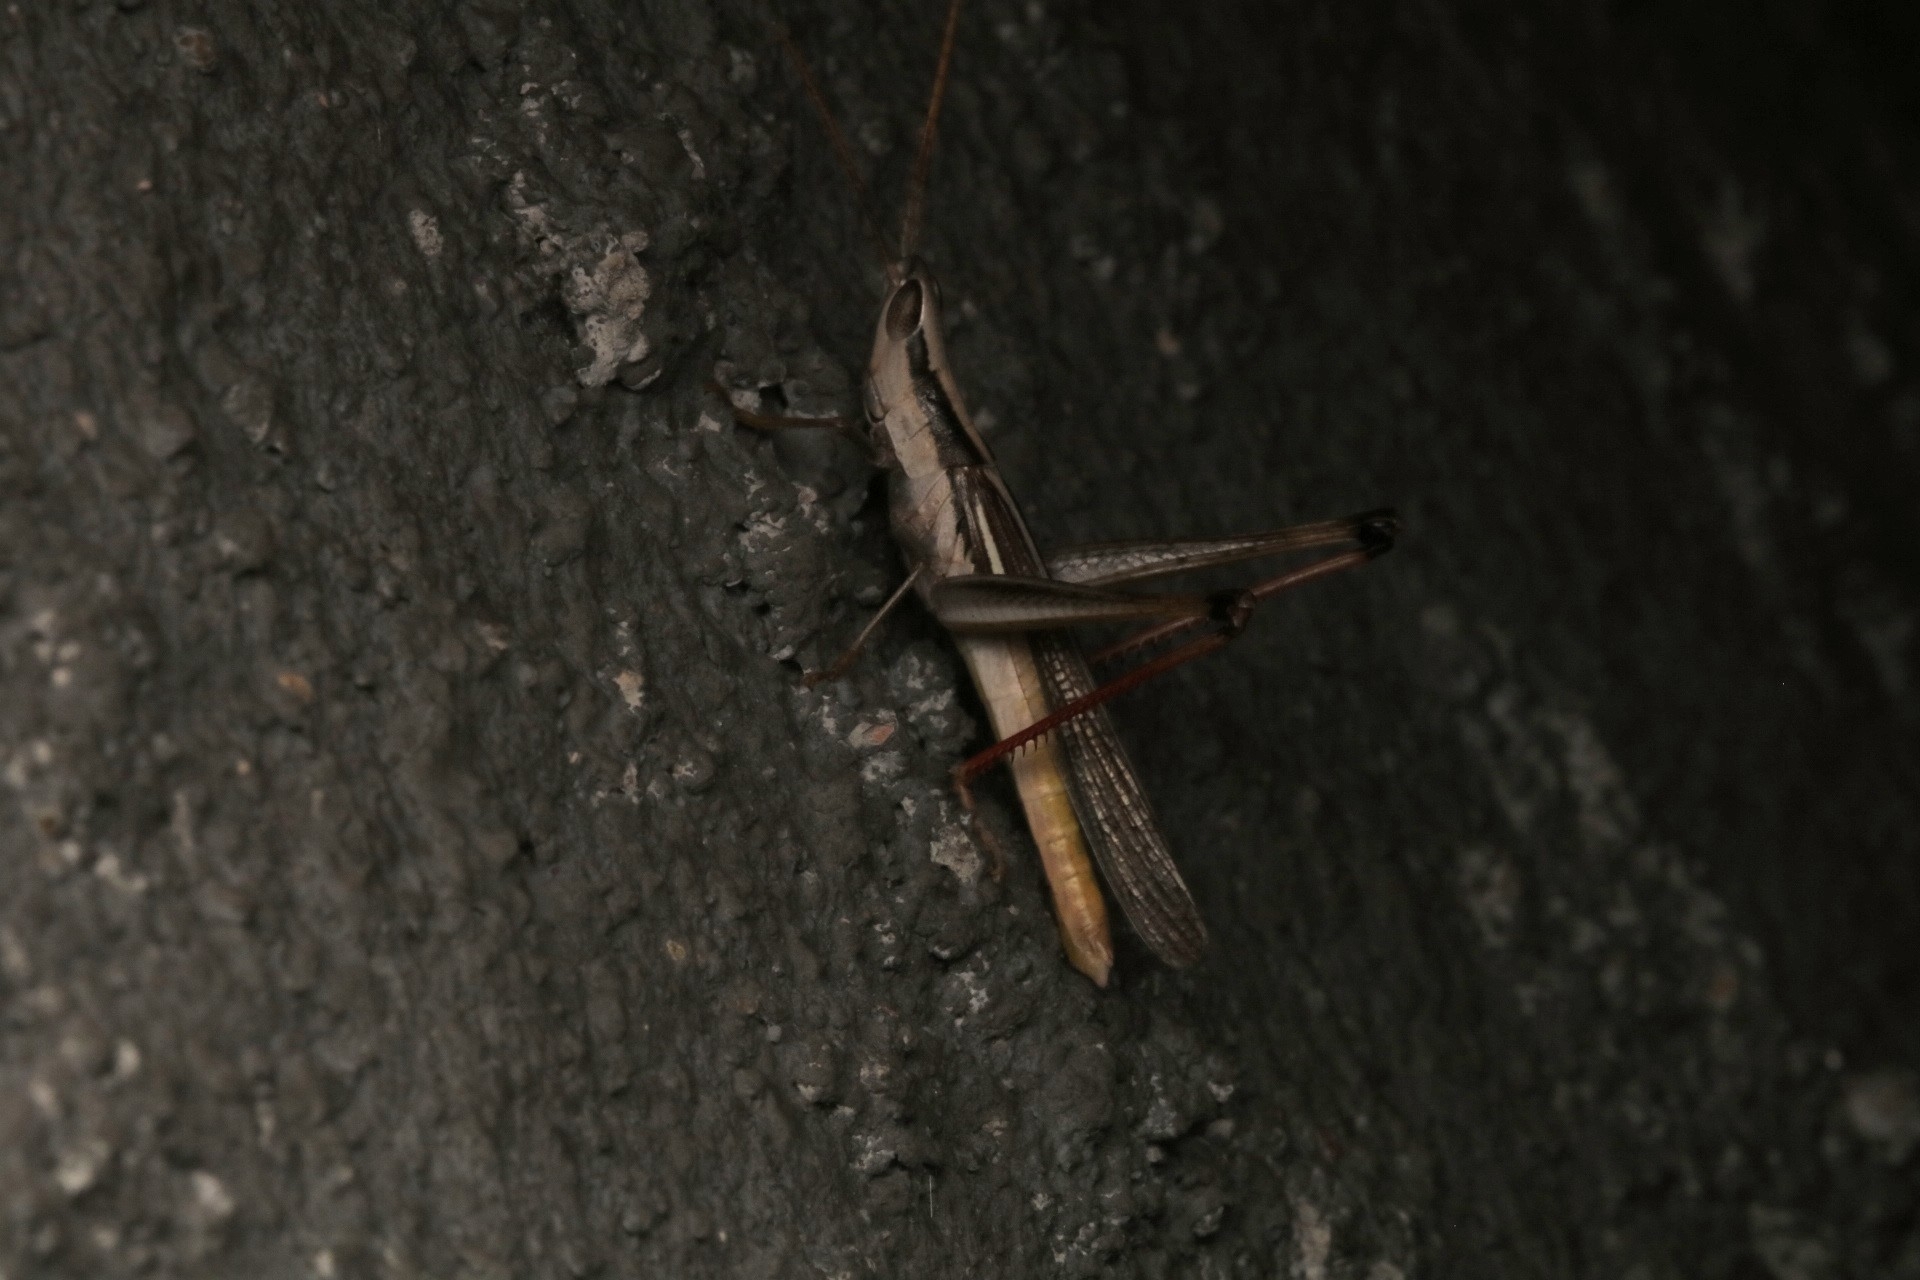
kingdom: Animalia
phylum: Arthropoda
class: Insecta
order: Orthoptera
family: Acrididae
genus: Mermiria
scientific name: Mermiria bivittata
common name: Two-striped mermiria grasshopper
